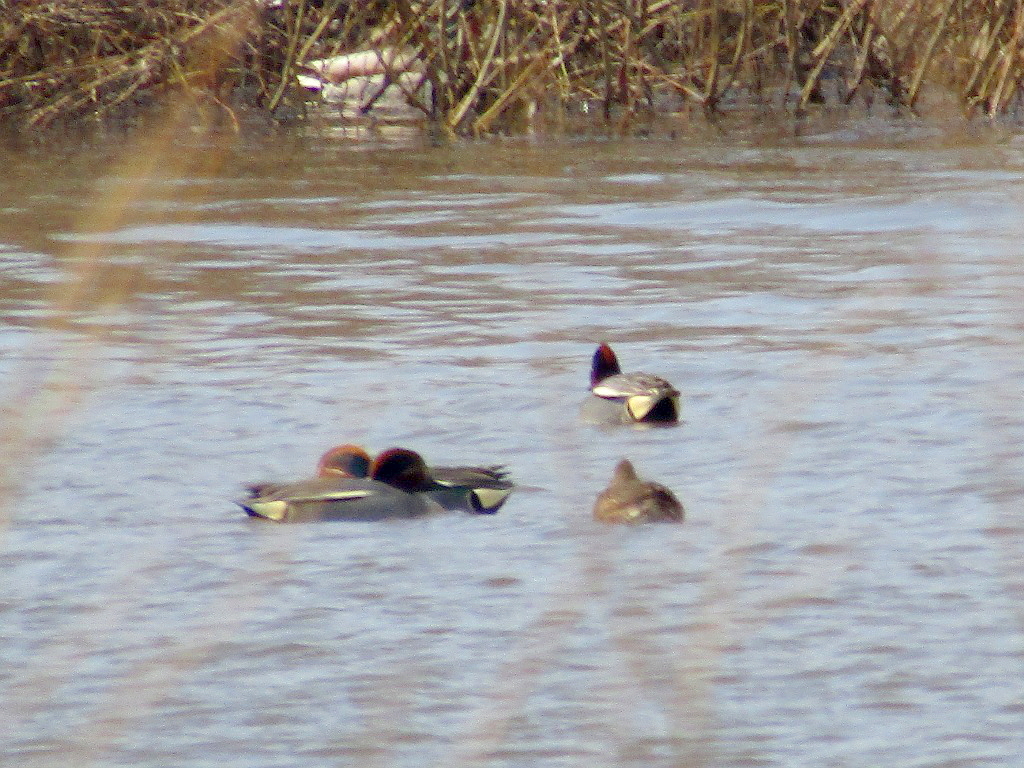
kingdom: Animalia
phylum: Chordata
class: Aves
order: Anseriformes
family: Anatidae
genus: Anas
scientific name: Anas crecca
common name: Eurasian teal
